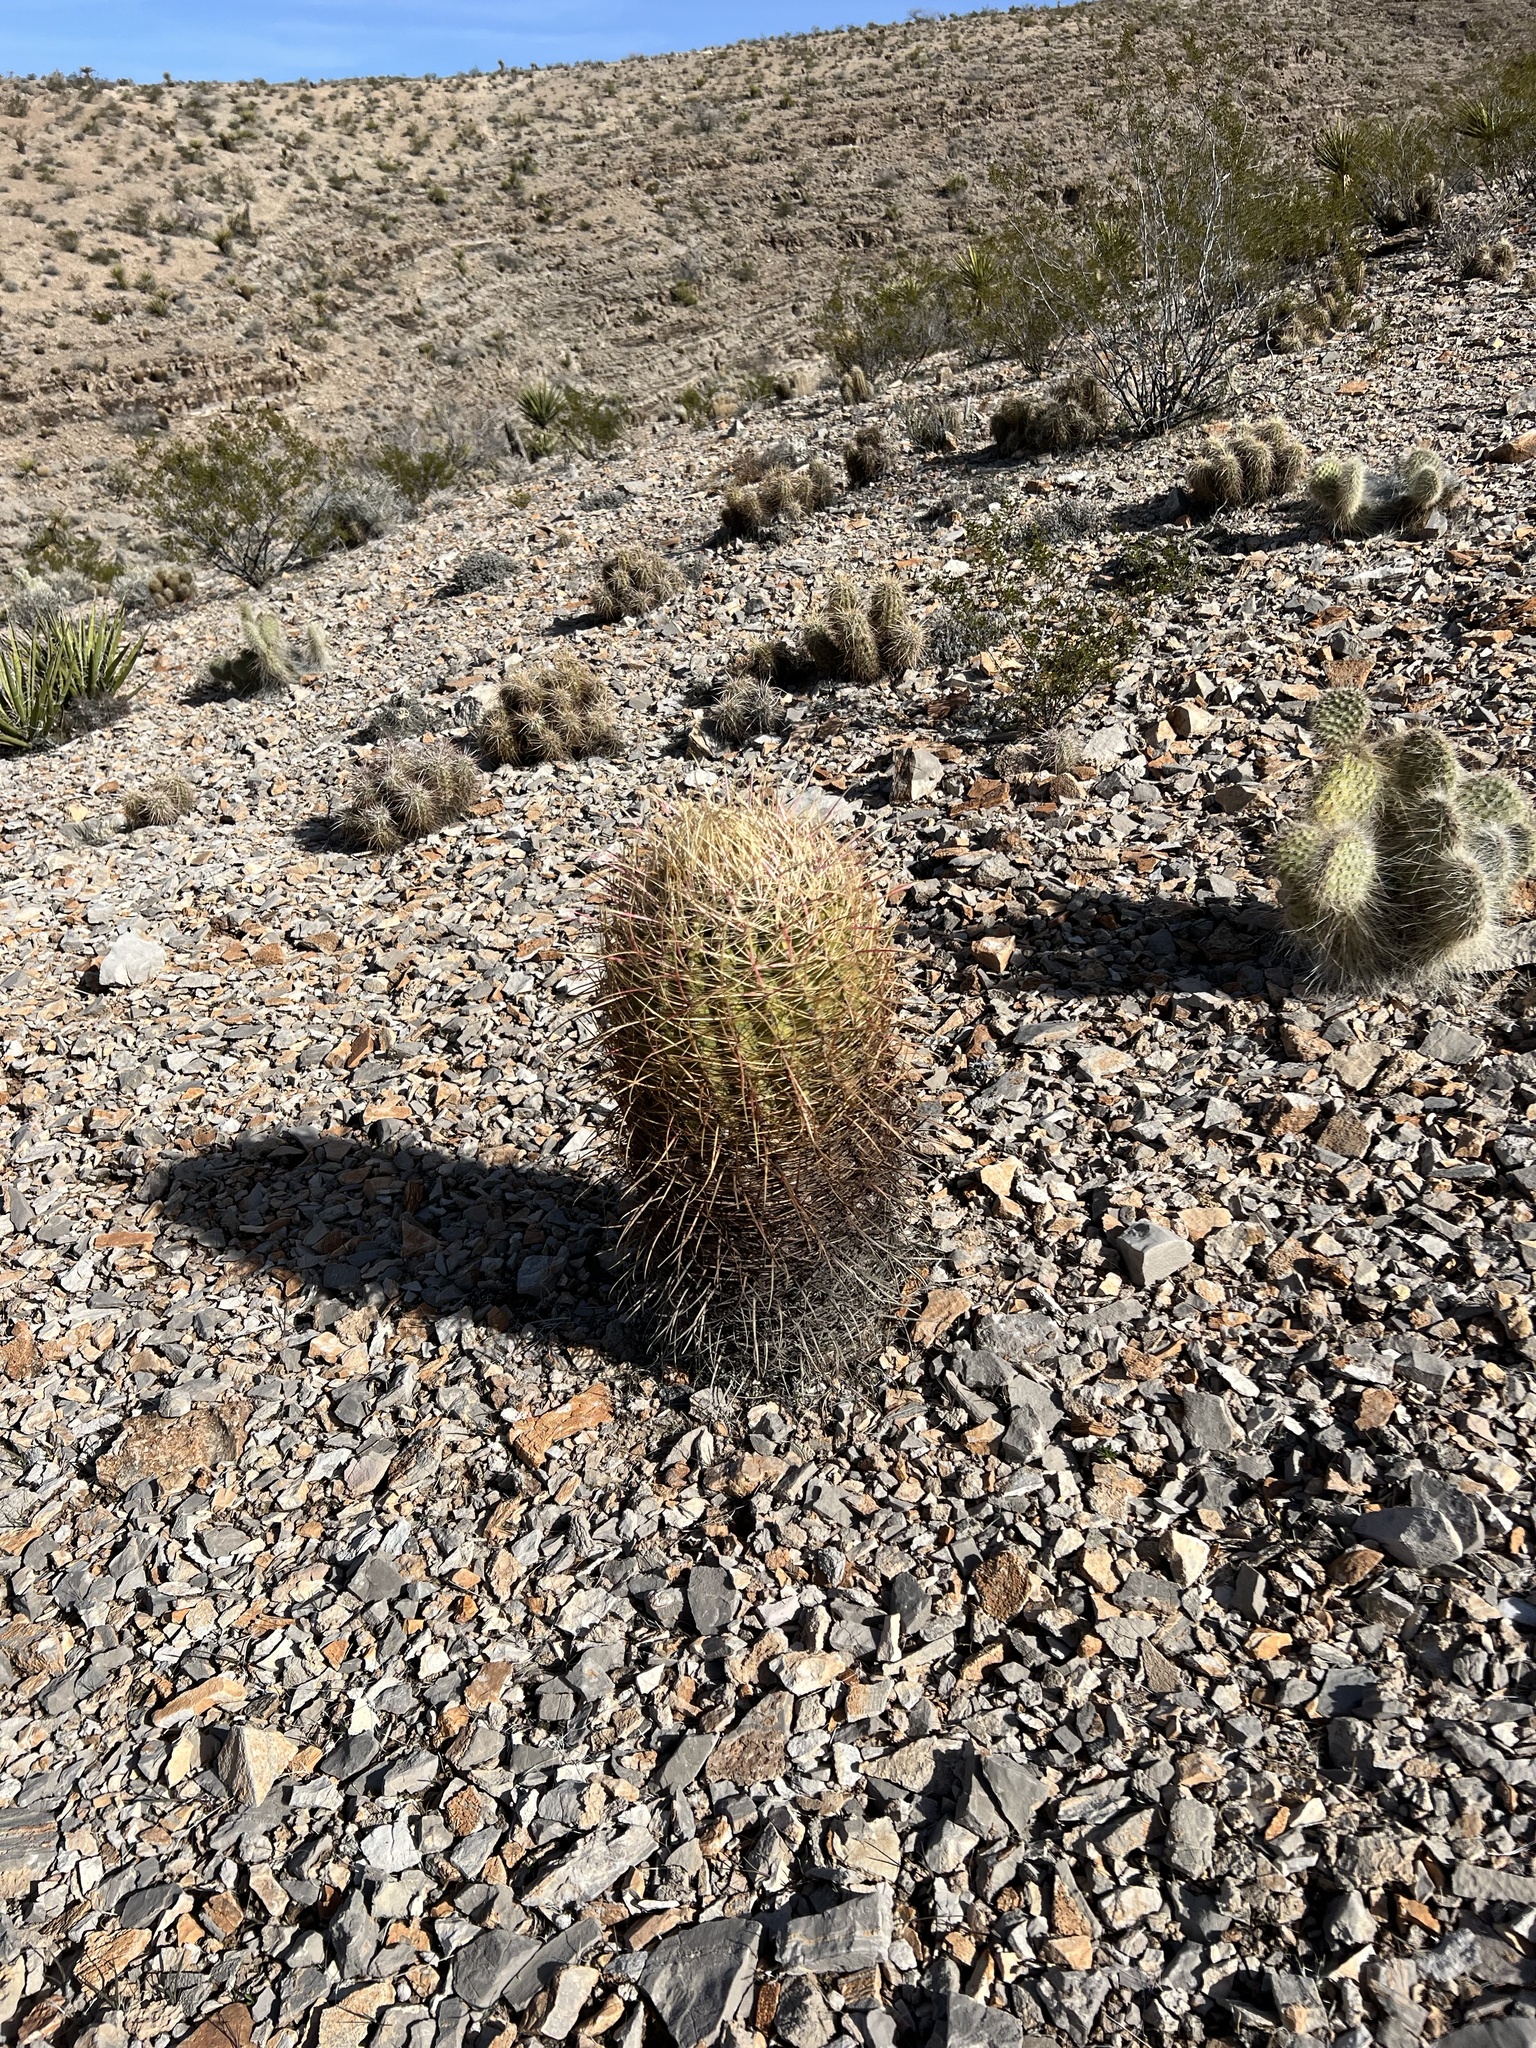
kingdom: Plantae
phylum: Tracheophyta
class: Magnoliopsida
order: Caryophyllales
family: Cactaceae
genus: Ferocactus
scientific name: Ferocactus cylindraceus
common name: California barrel cactus
